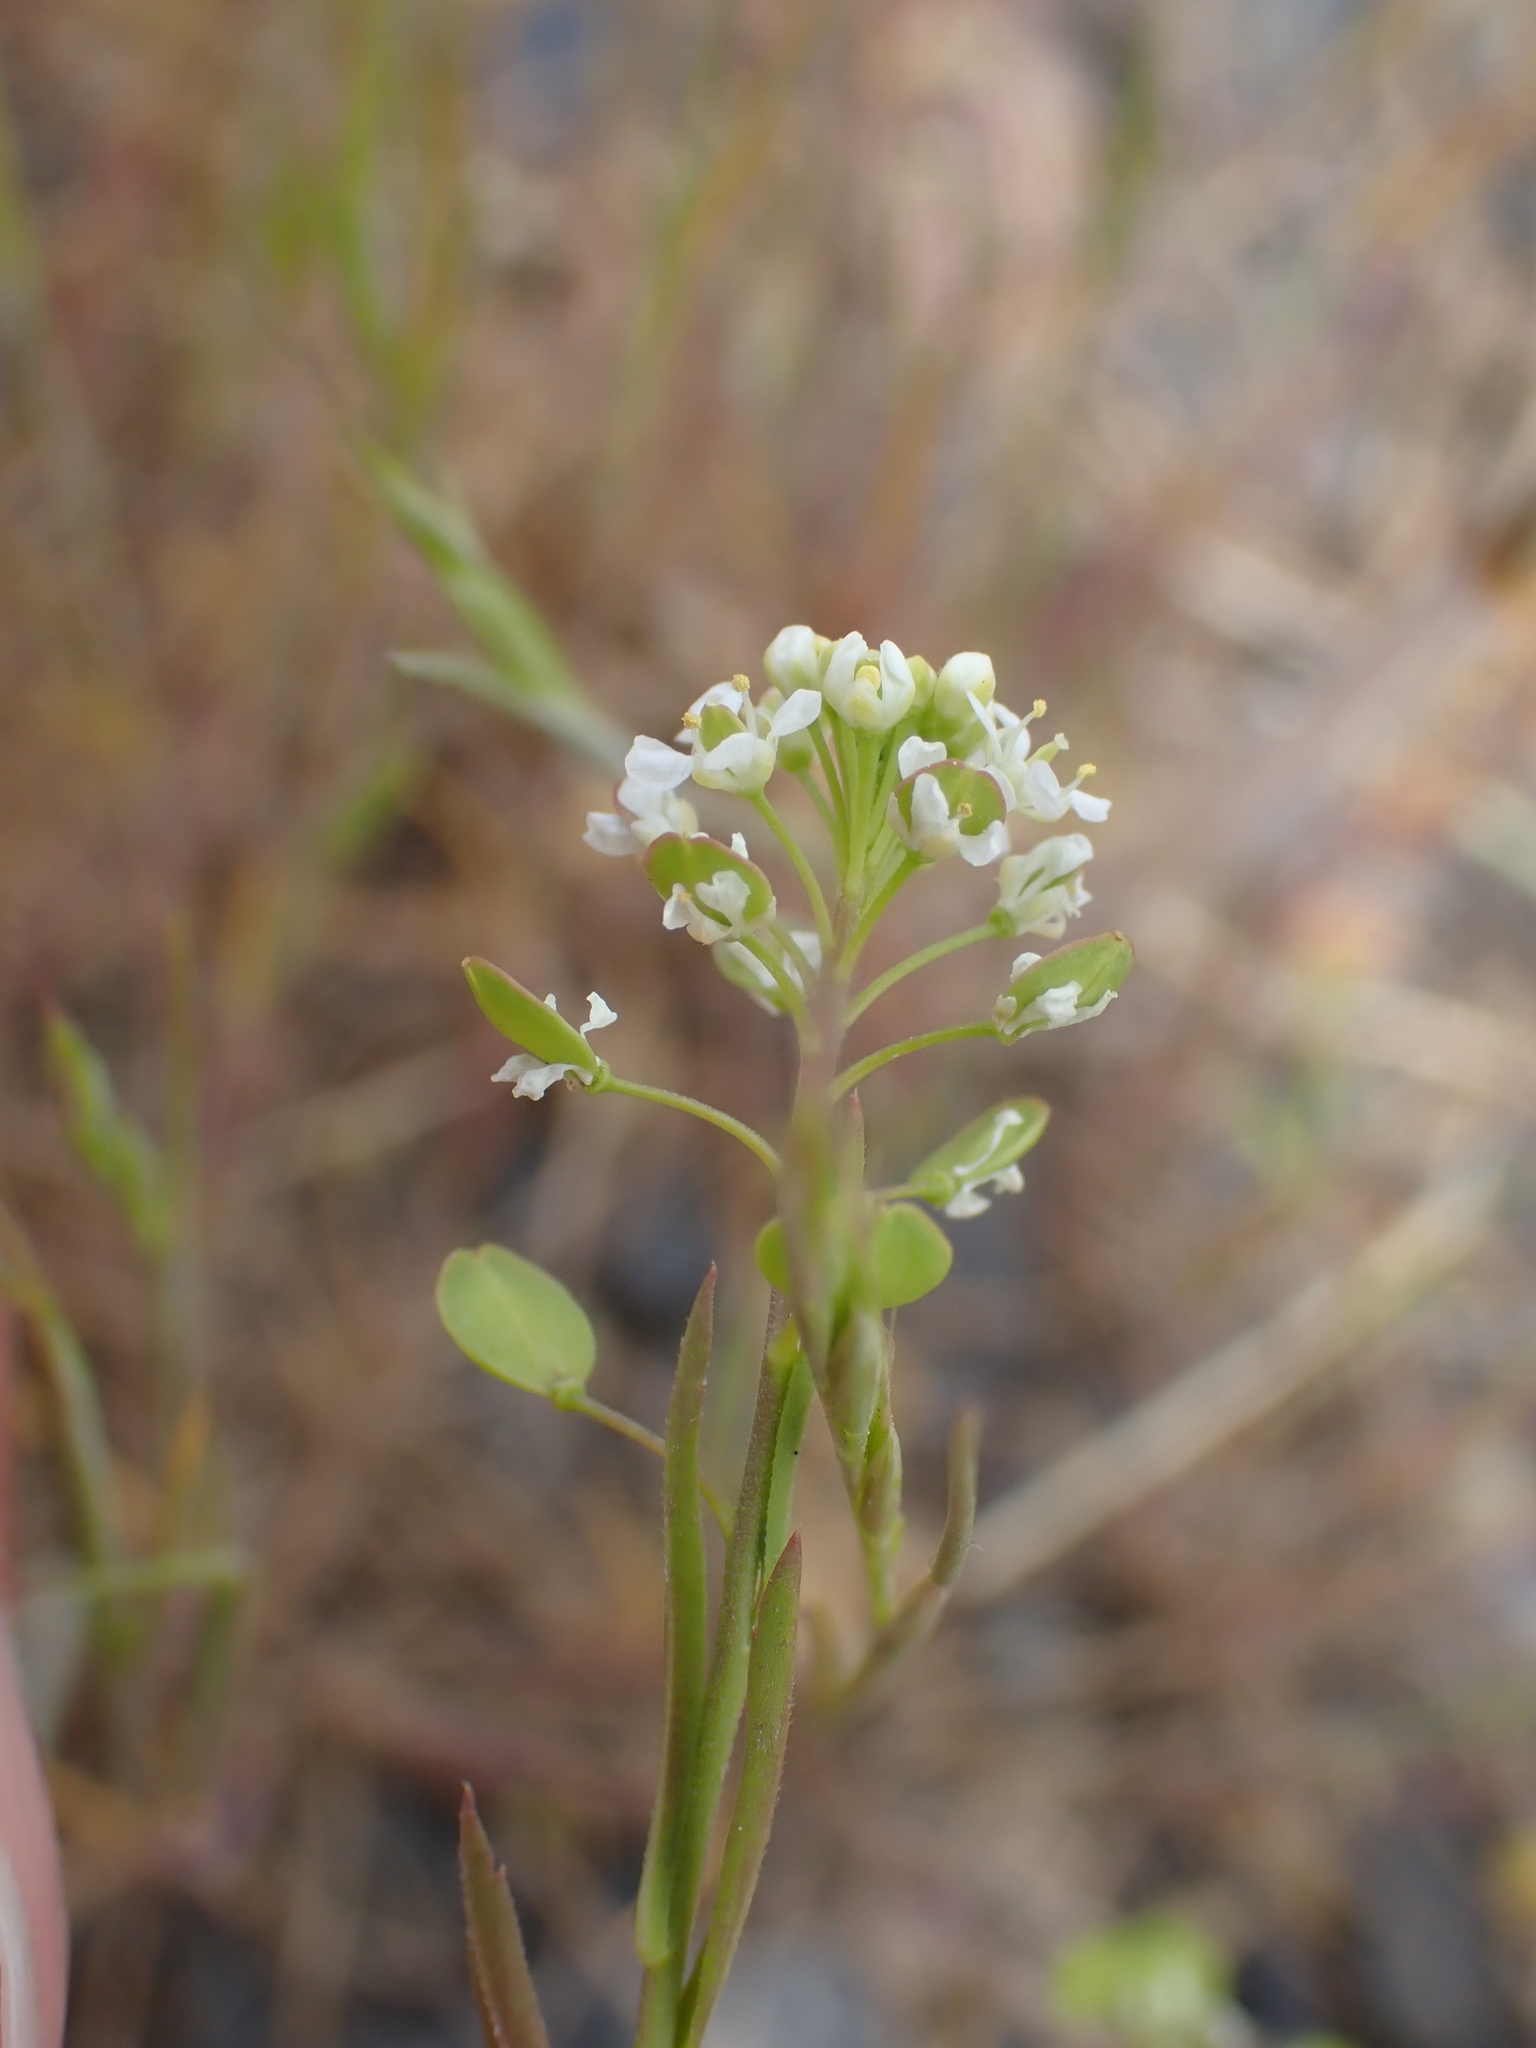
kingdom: Plantae
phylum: Tracheophyta
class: Magnoliopsida
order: Brassicales
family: Brassicaceae
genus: Lepidium
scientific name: Lepidium virginicum
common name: Least pepperwort
